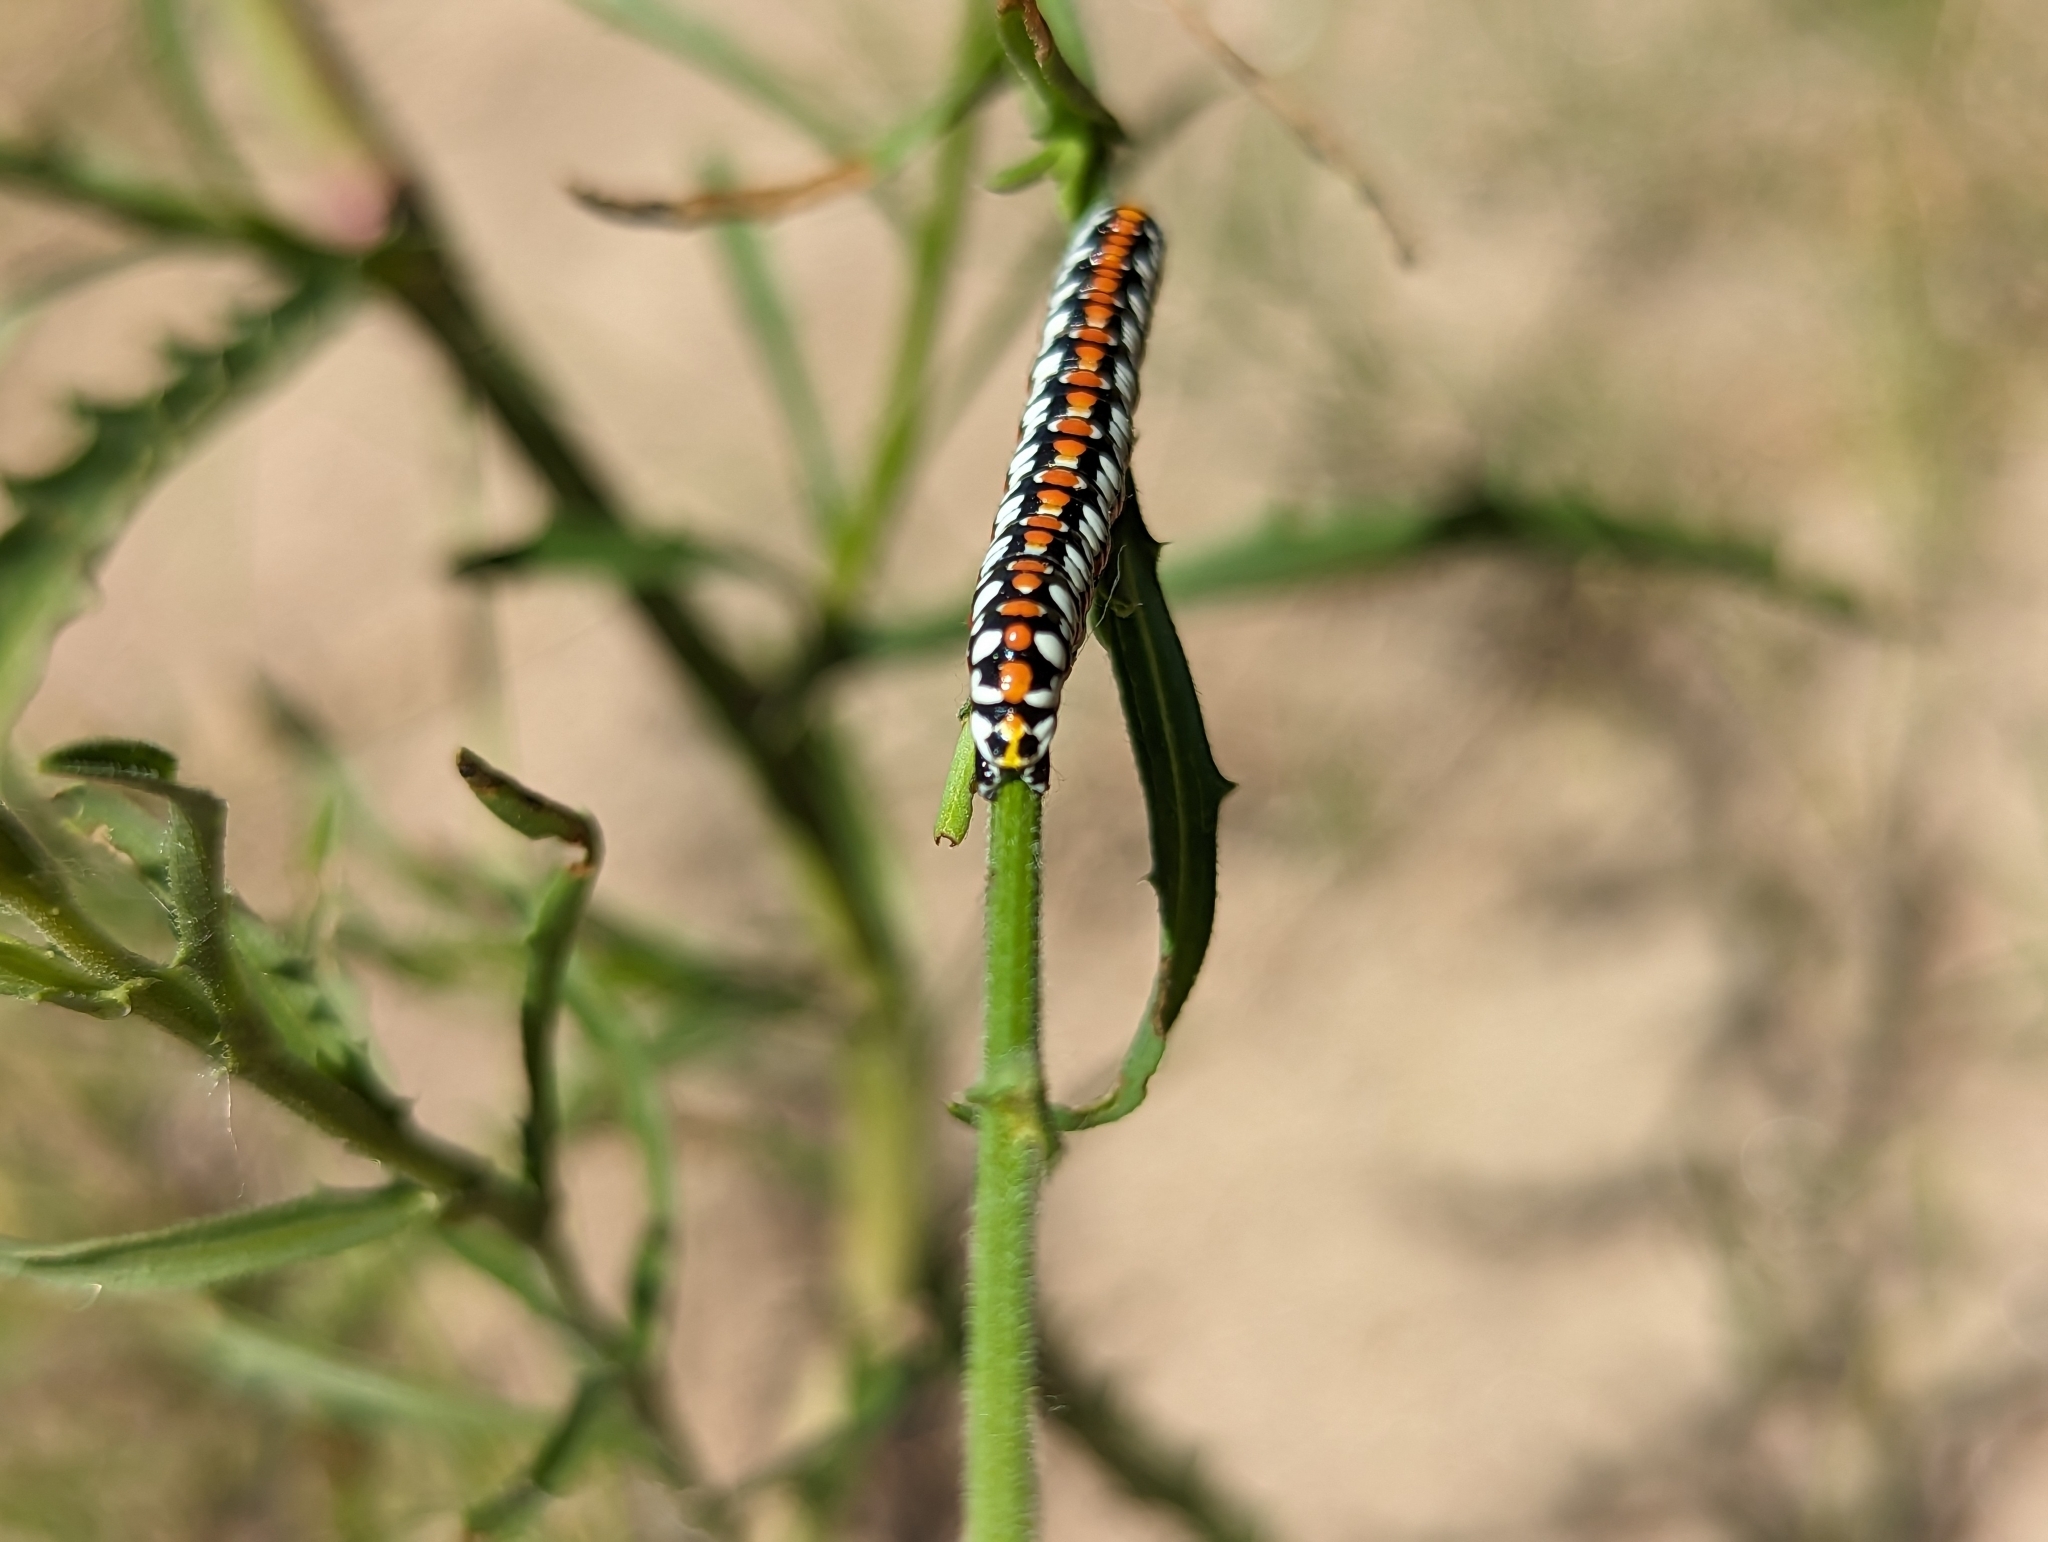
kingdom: Animalia
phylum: Arthropoda
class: Insecta
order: Lepidoptera
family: Noctuidae
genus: Cucullia
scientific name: Cucullia dorsalis
